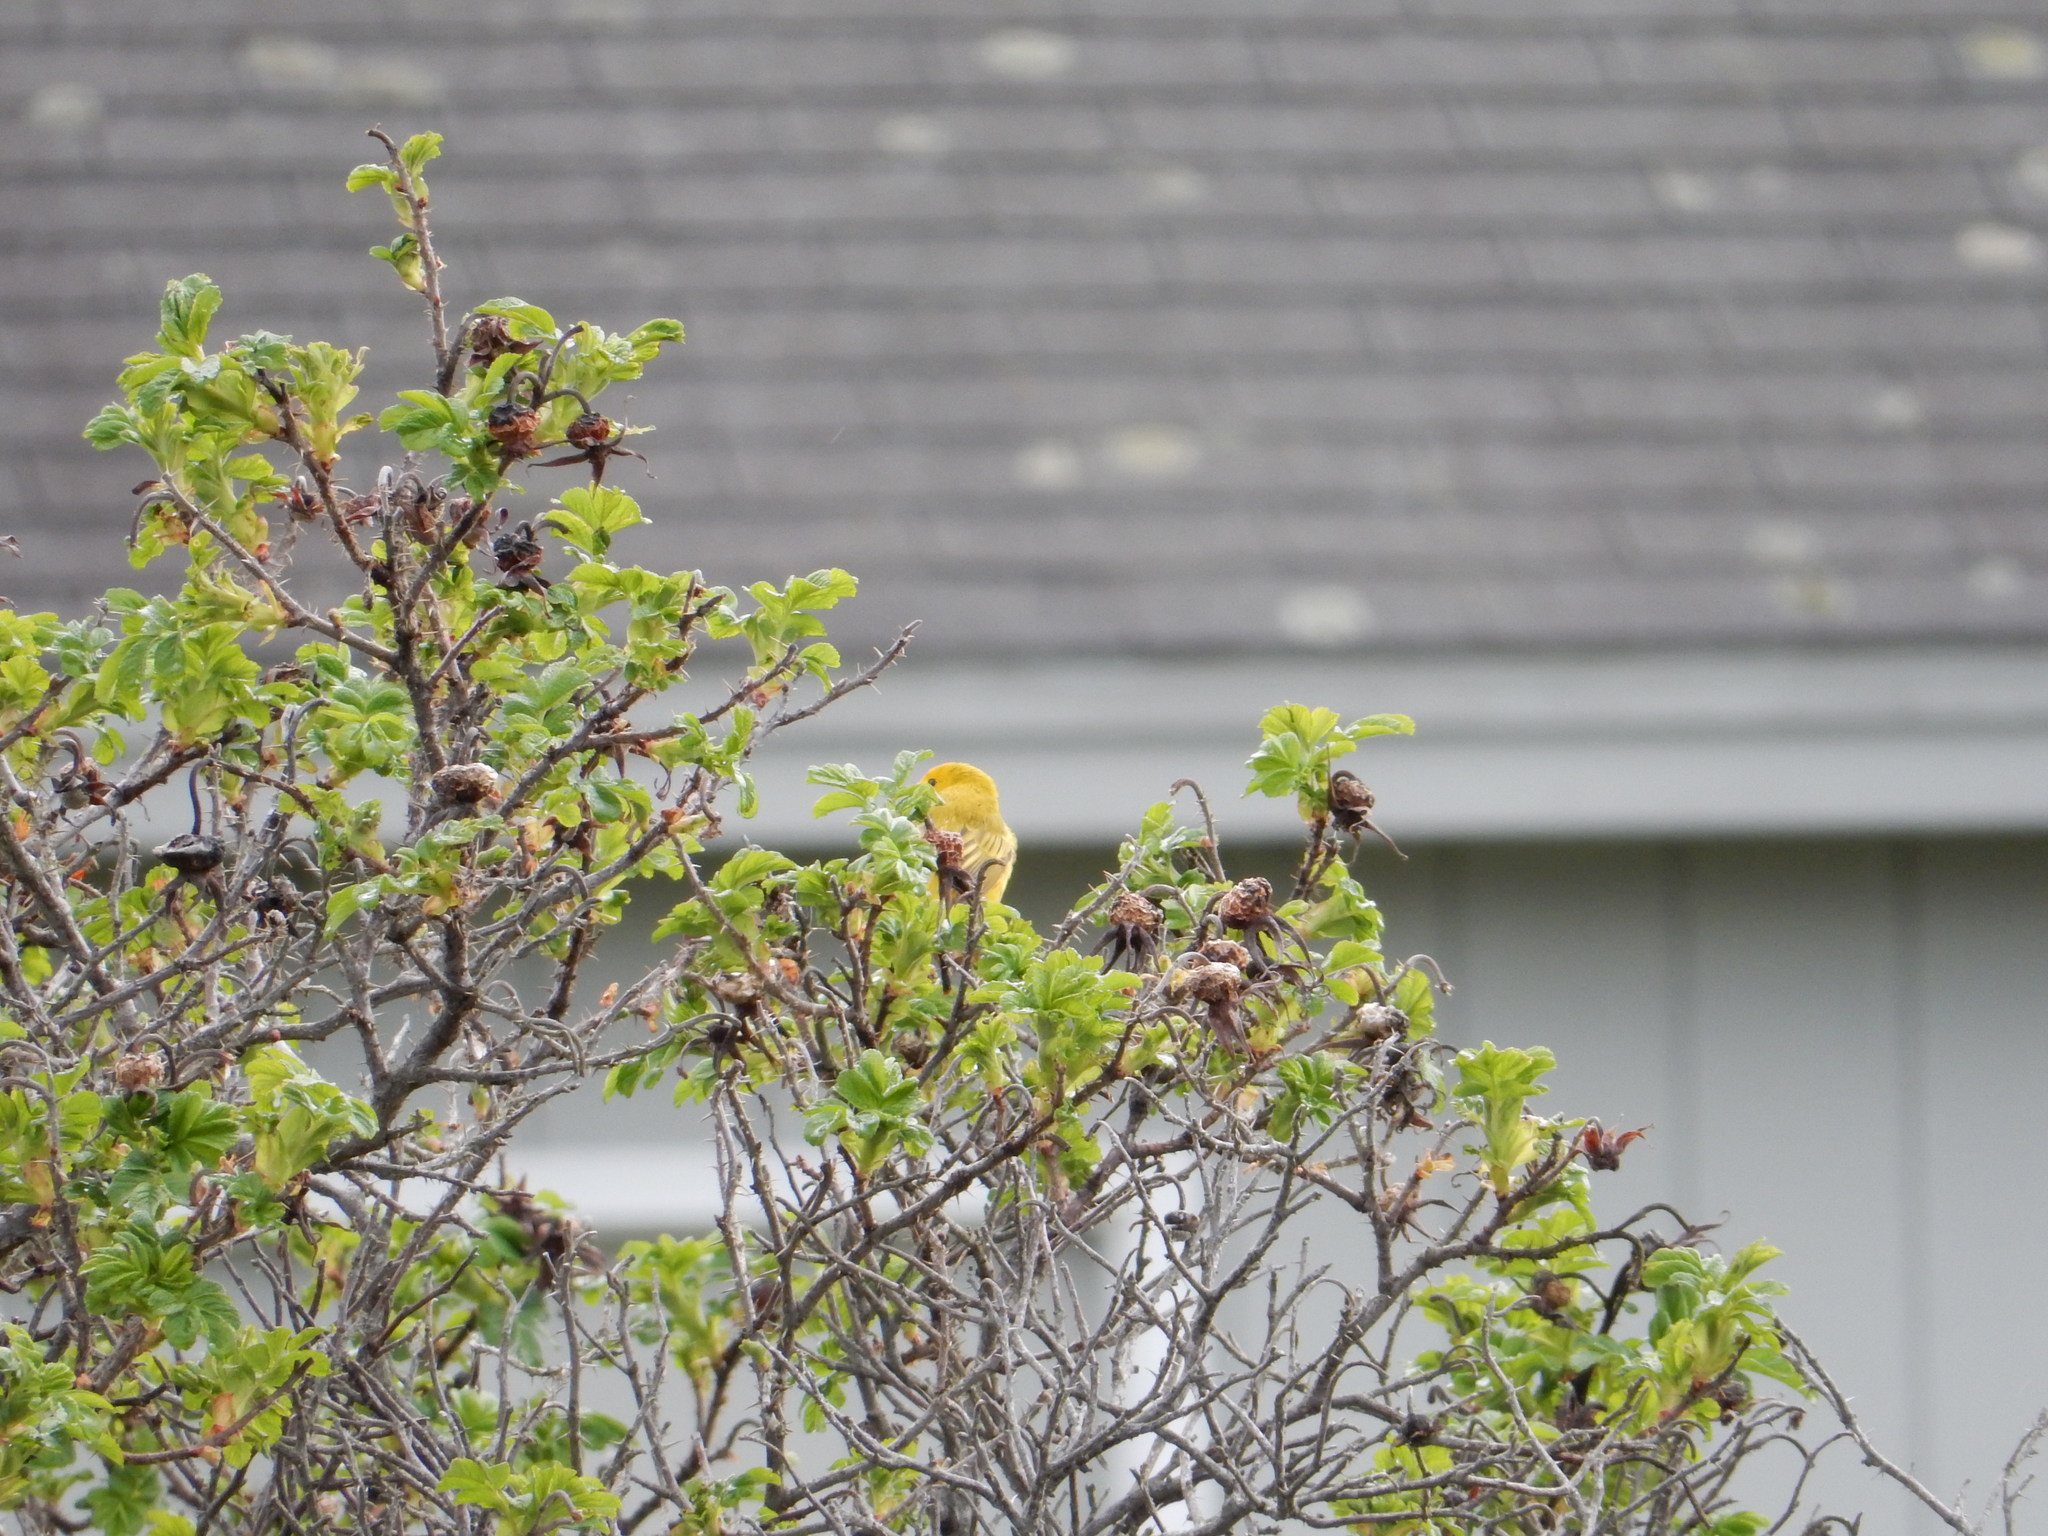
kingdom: Animalia
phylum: Chordata
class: Aves
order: Passeriformes
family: Parulidae
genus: Setophaga
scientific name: Setophaga petechia
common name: Yellow warbler
